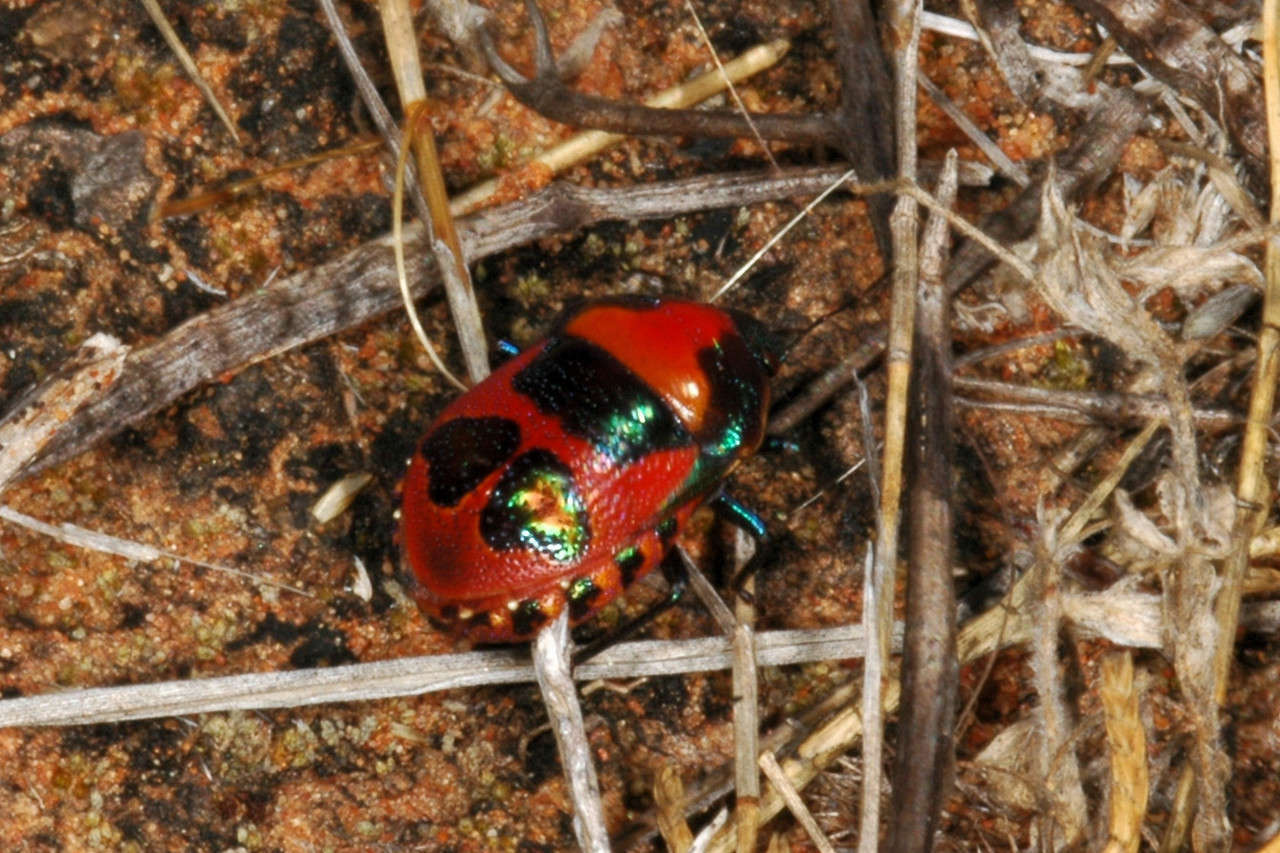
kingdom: Animalia
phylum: Arthropoda
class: Insecta
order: Hemiptera
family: Scutelleridae
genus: Choerocoris
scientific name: Choerocoris paganus
